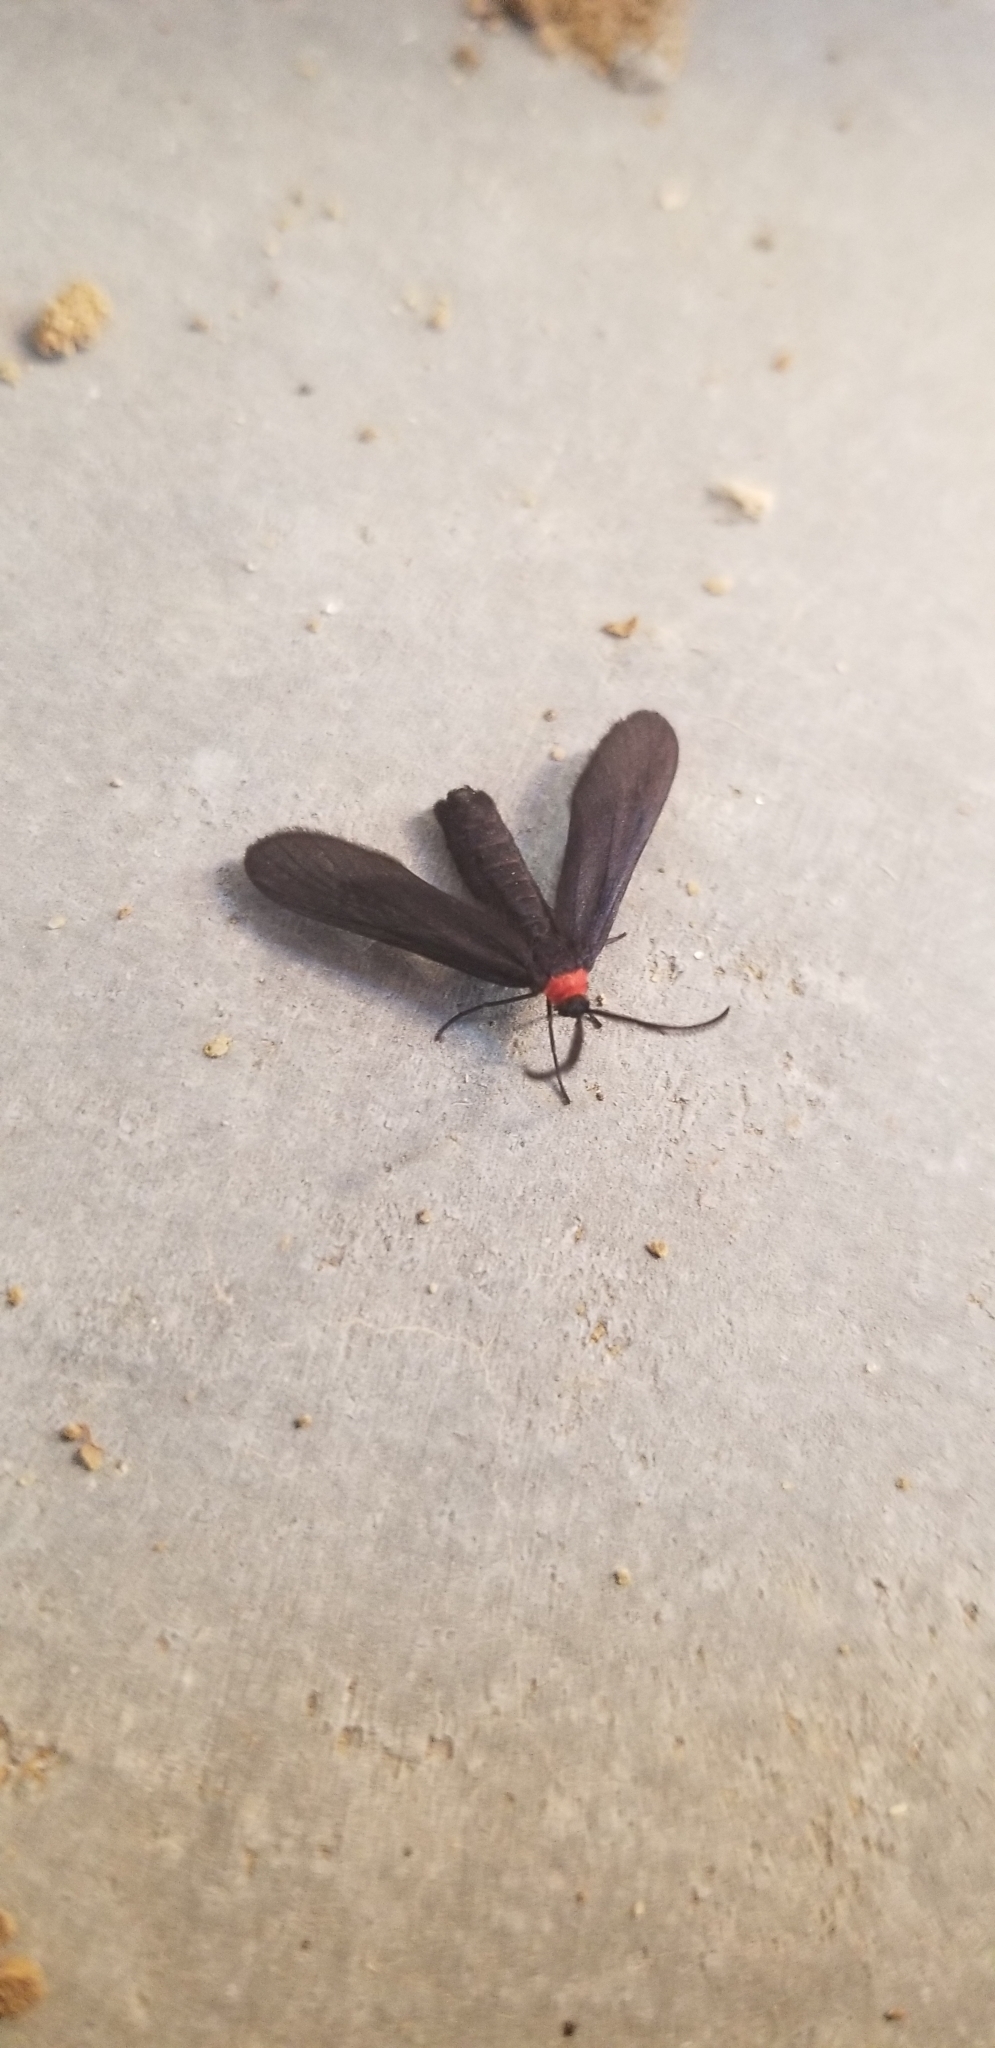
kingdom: Animalia
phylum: Arthropoda
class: Insecta
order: Lepidoptera
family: Zygaenidae
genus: Harrisina
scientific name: Harrisina americana
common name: Grapeleaf skeletonizer moth
